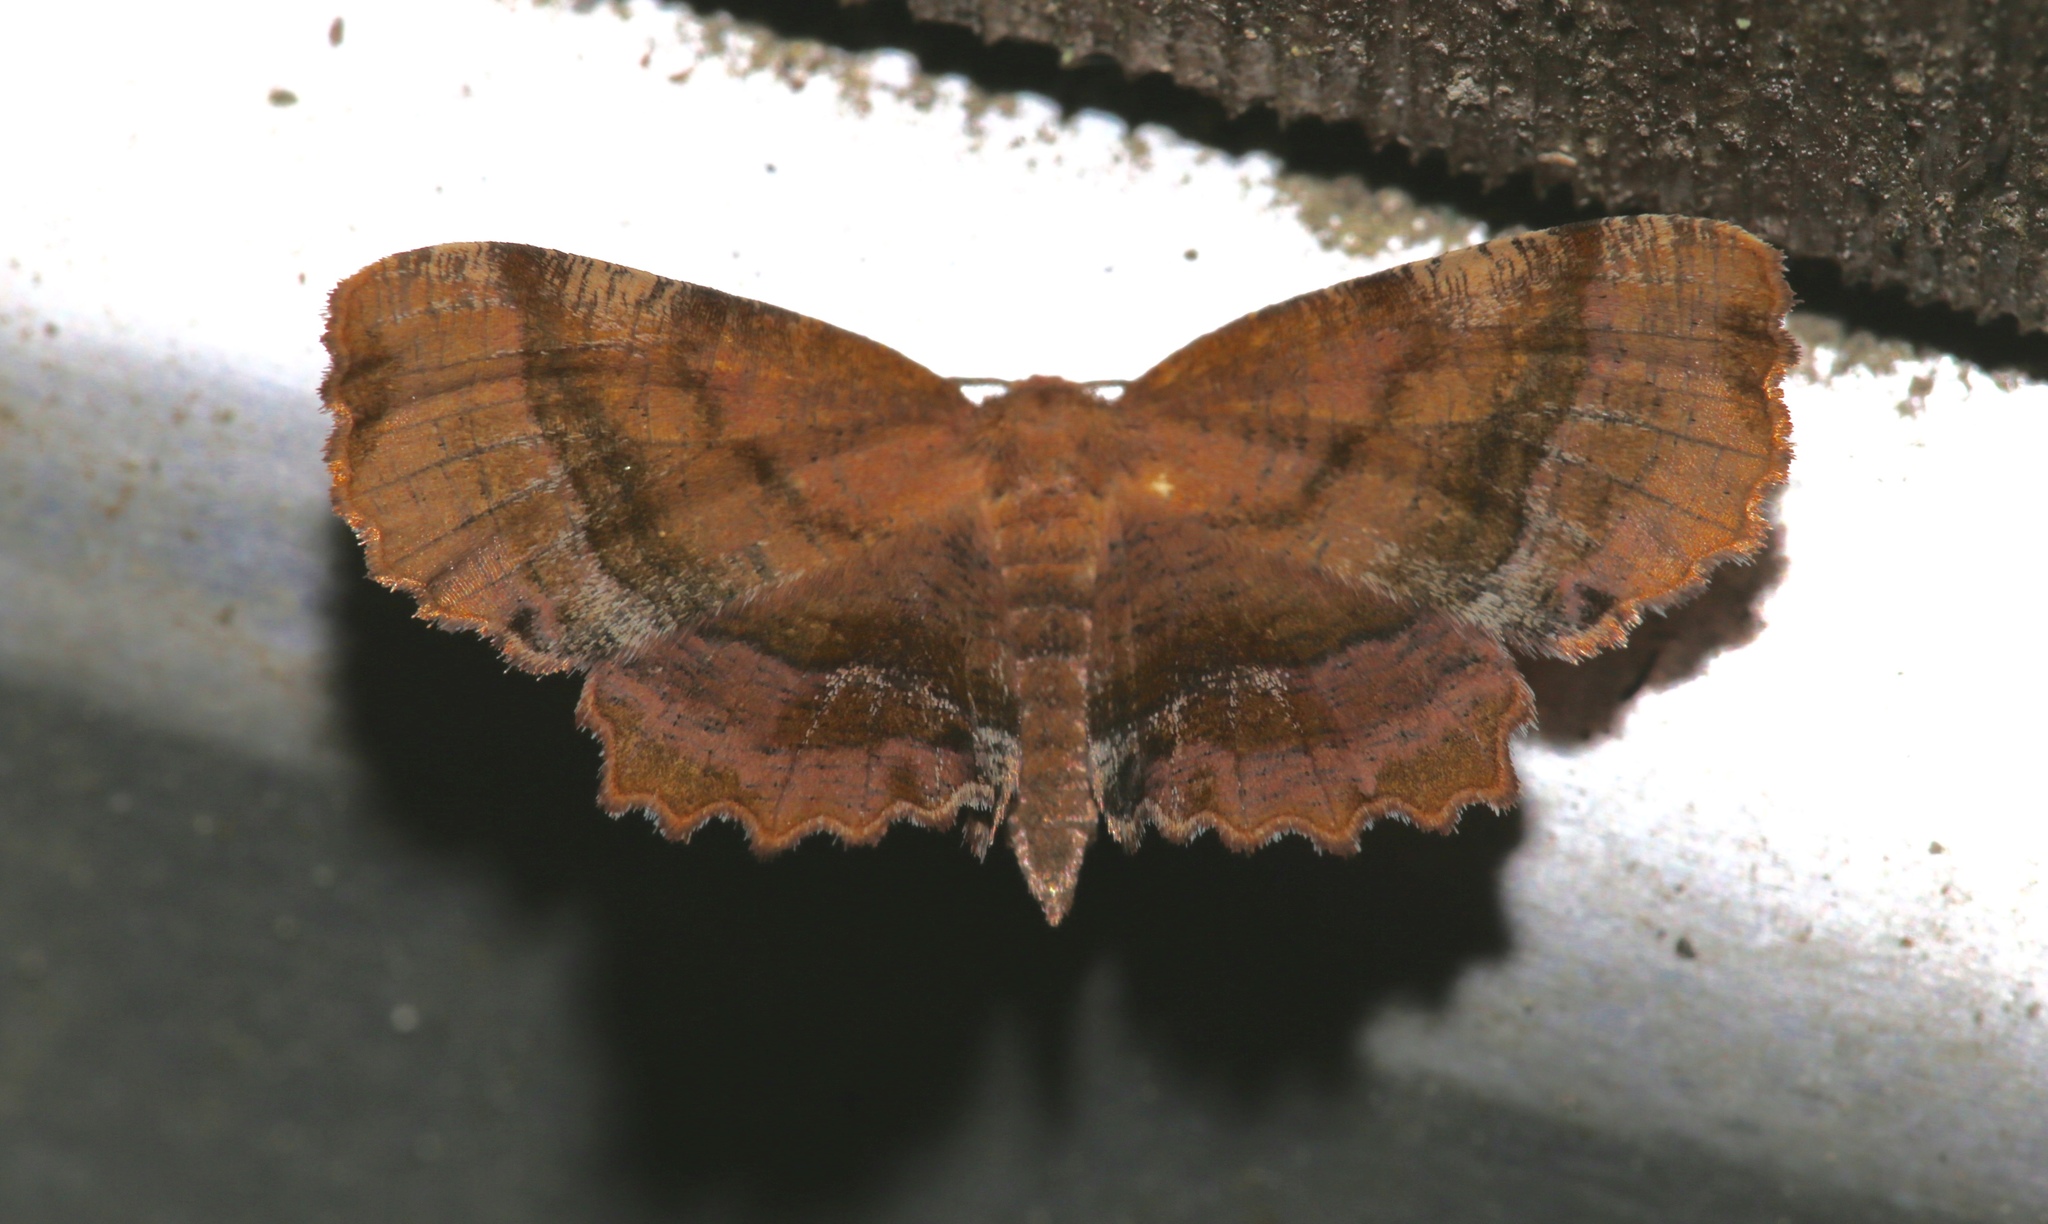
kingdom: Animalia
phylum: Arthropoda
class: Insecta
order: Lepidoptera
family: Geometridae
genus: Cepphis
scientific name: Cepphis armataria
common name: Scallop moth
